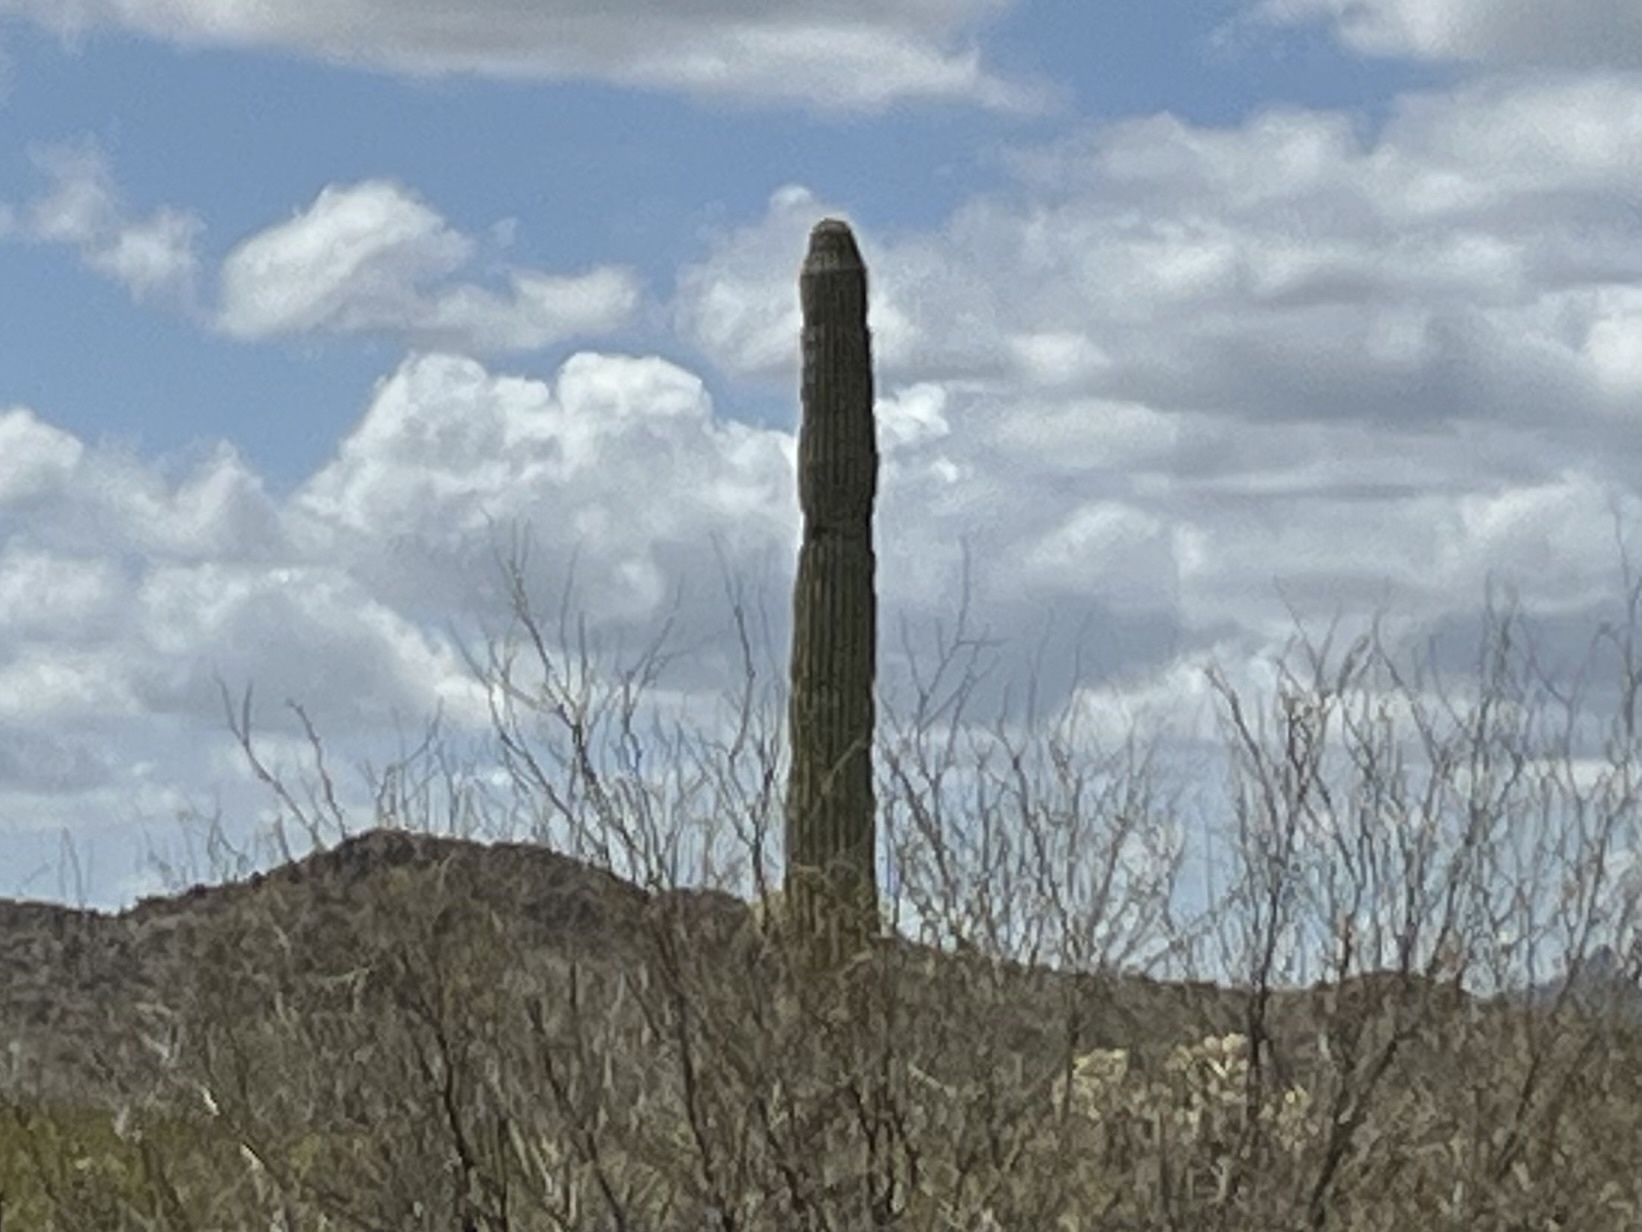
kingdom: Plantae
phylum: Tracheophyta
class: Magnoliopsida
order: Caryophyllales
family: Cactaceae
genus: Carnegiea
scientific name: Carnegiea gigantea
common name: Saguaro
